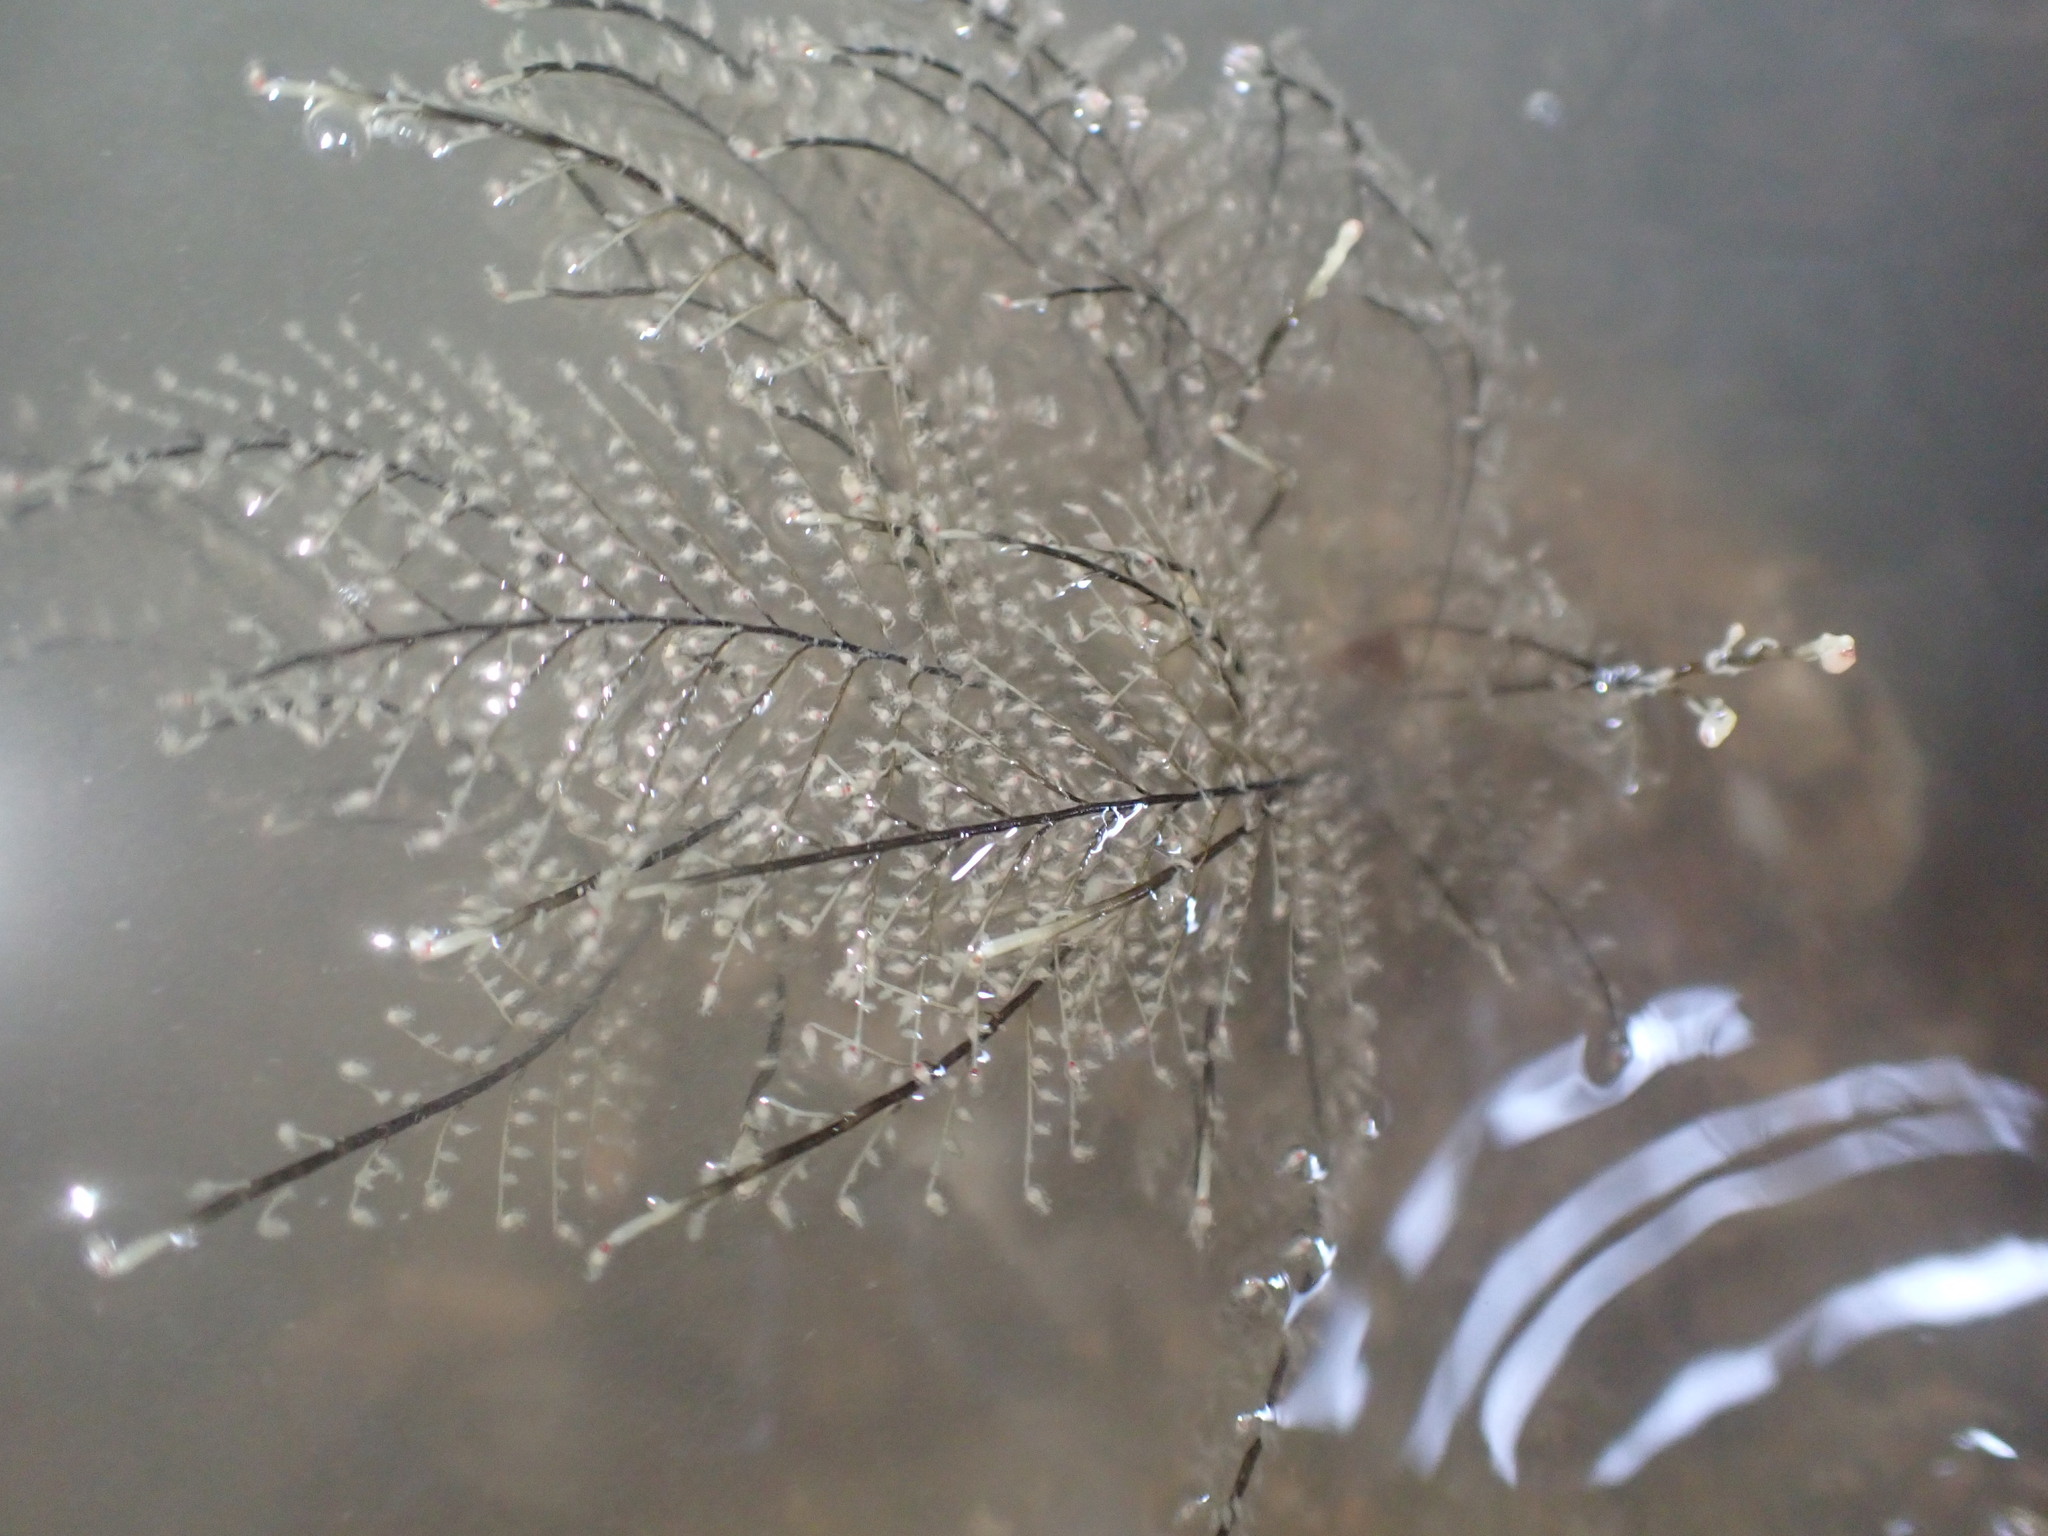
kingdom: Animalia
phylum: Cnidaria
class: Hydrozoa
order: Anthoathecata
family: Pennariidae
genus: Pennaria
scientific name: Pennaria disticha
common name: Feather hydroid
